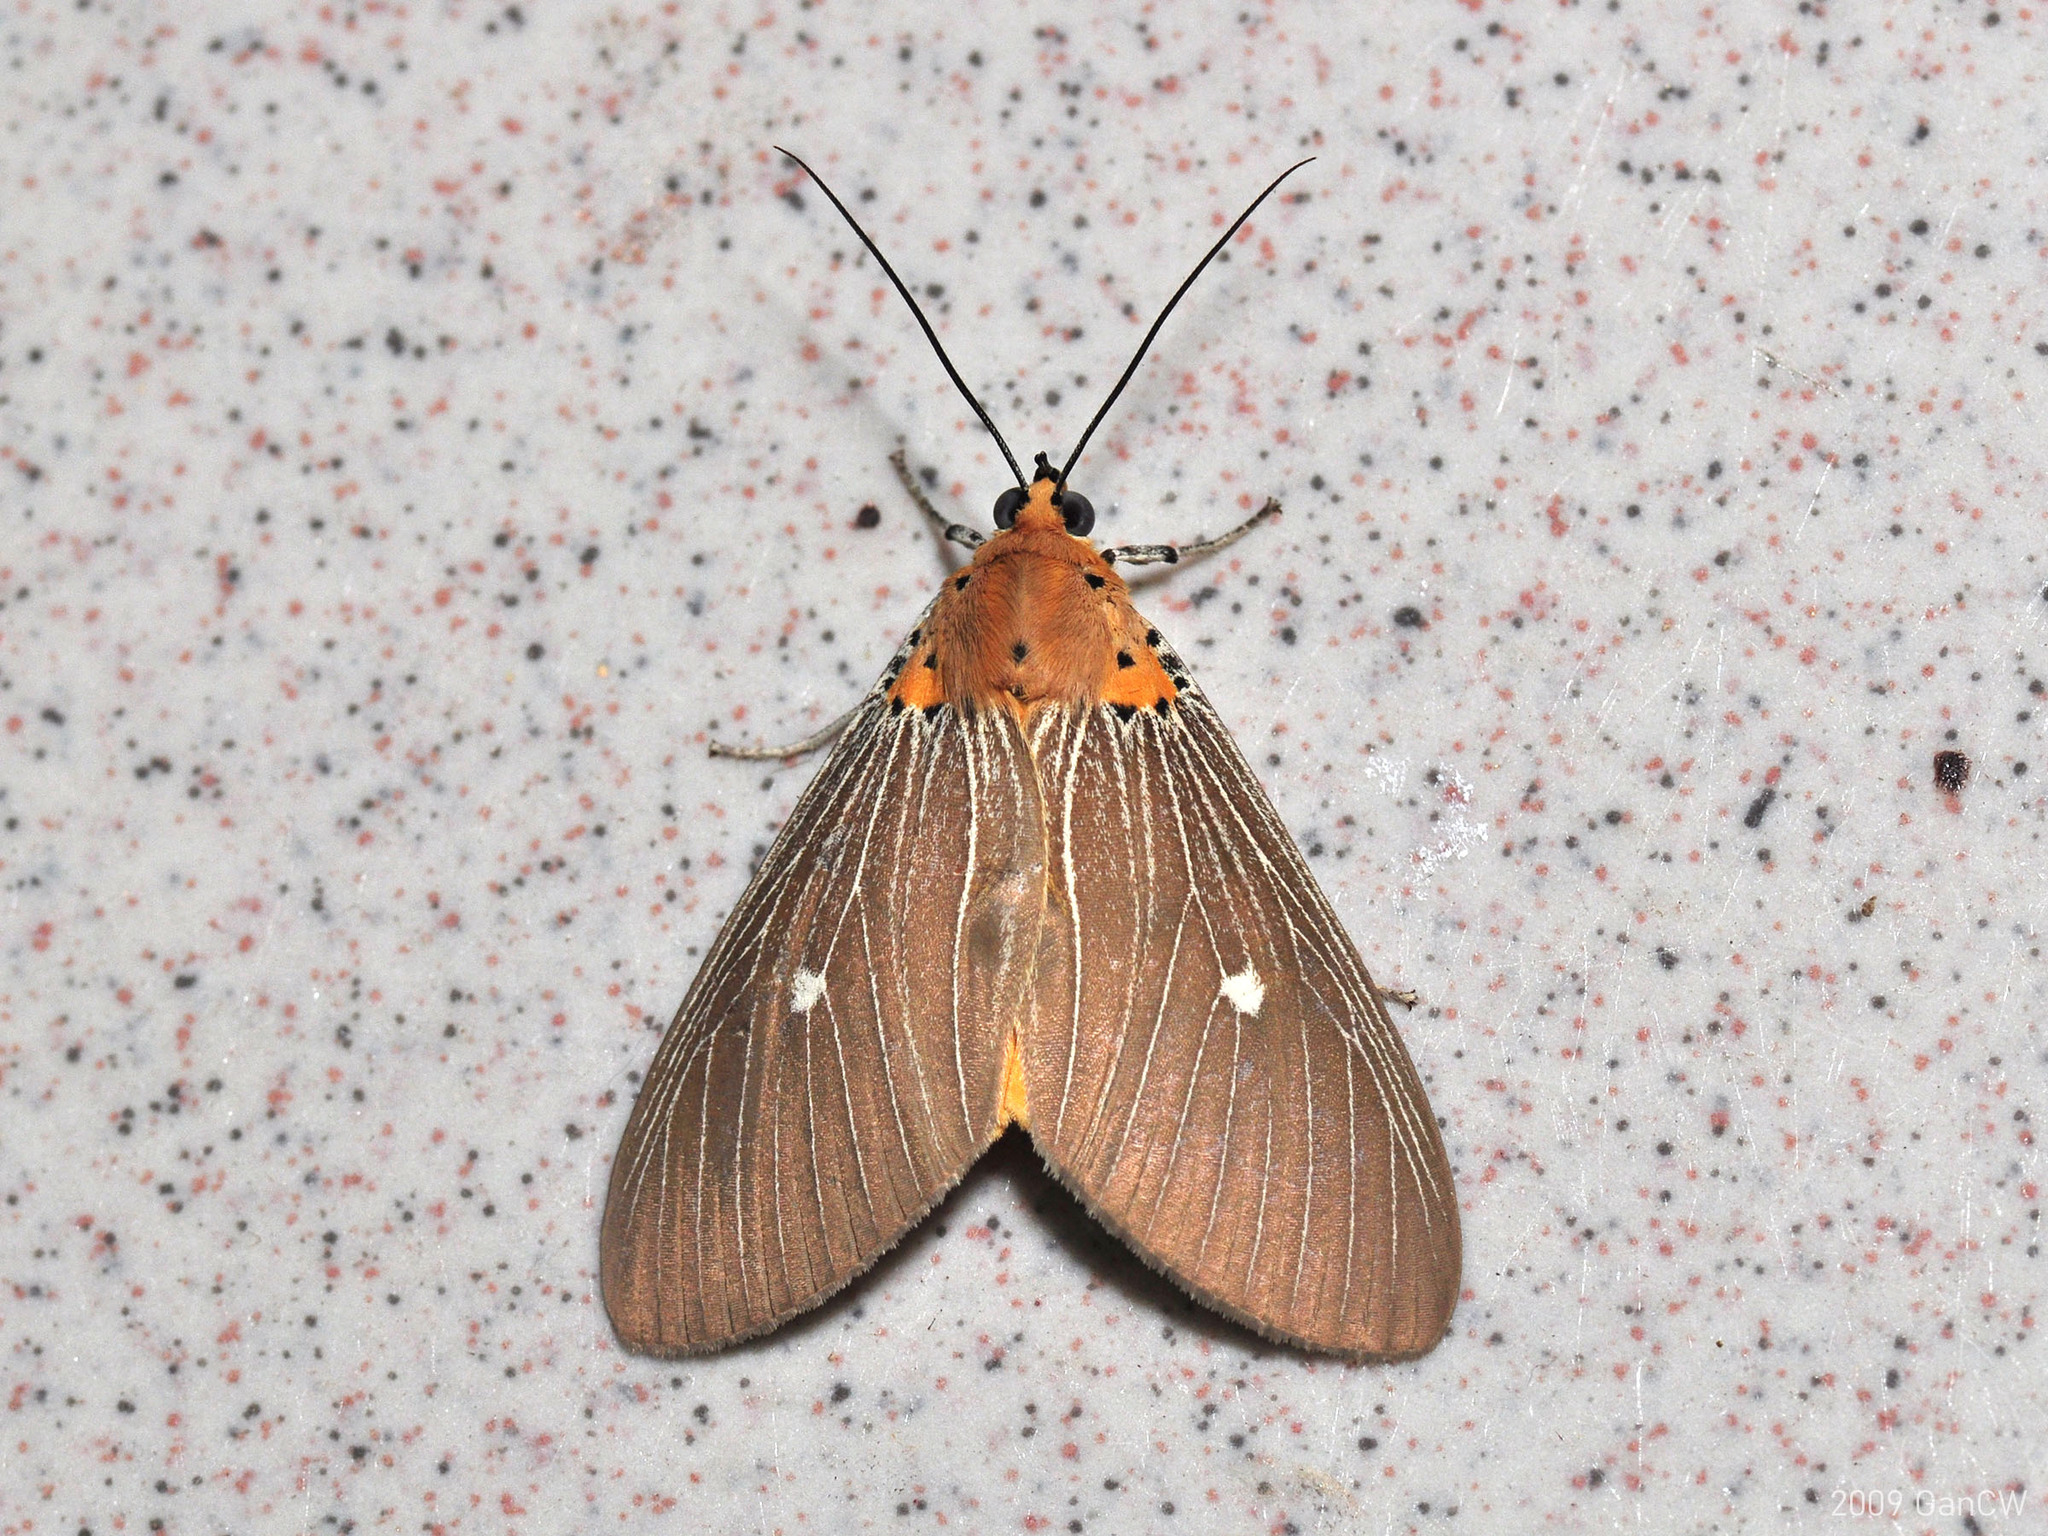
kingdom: Animalia
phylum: Arthropoda
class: Insecta
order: Lepidoptera
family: Erebidae
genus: Asota
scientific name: Asota caricae
